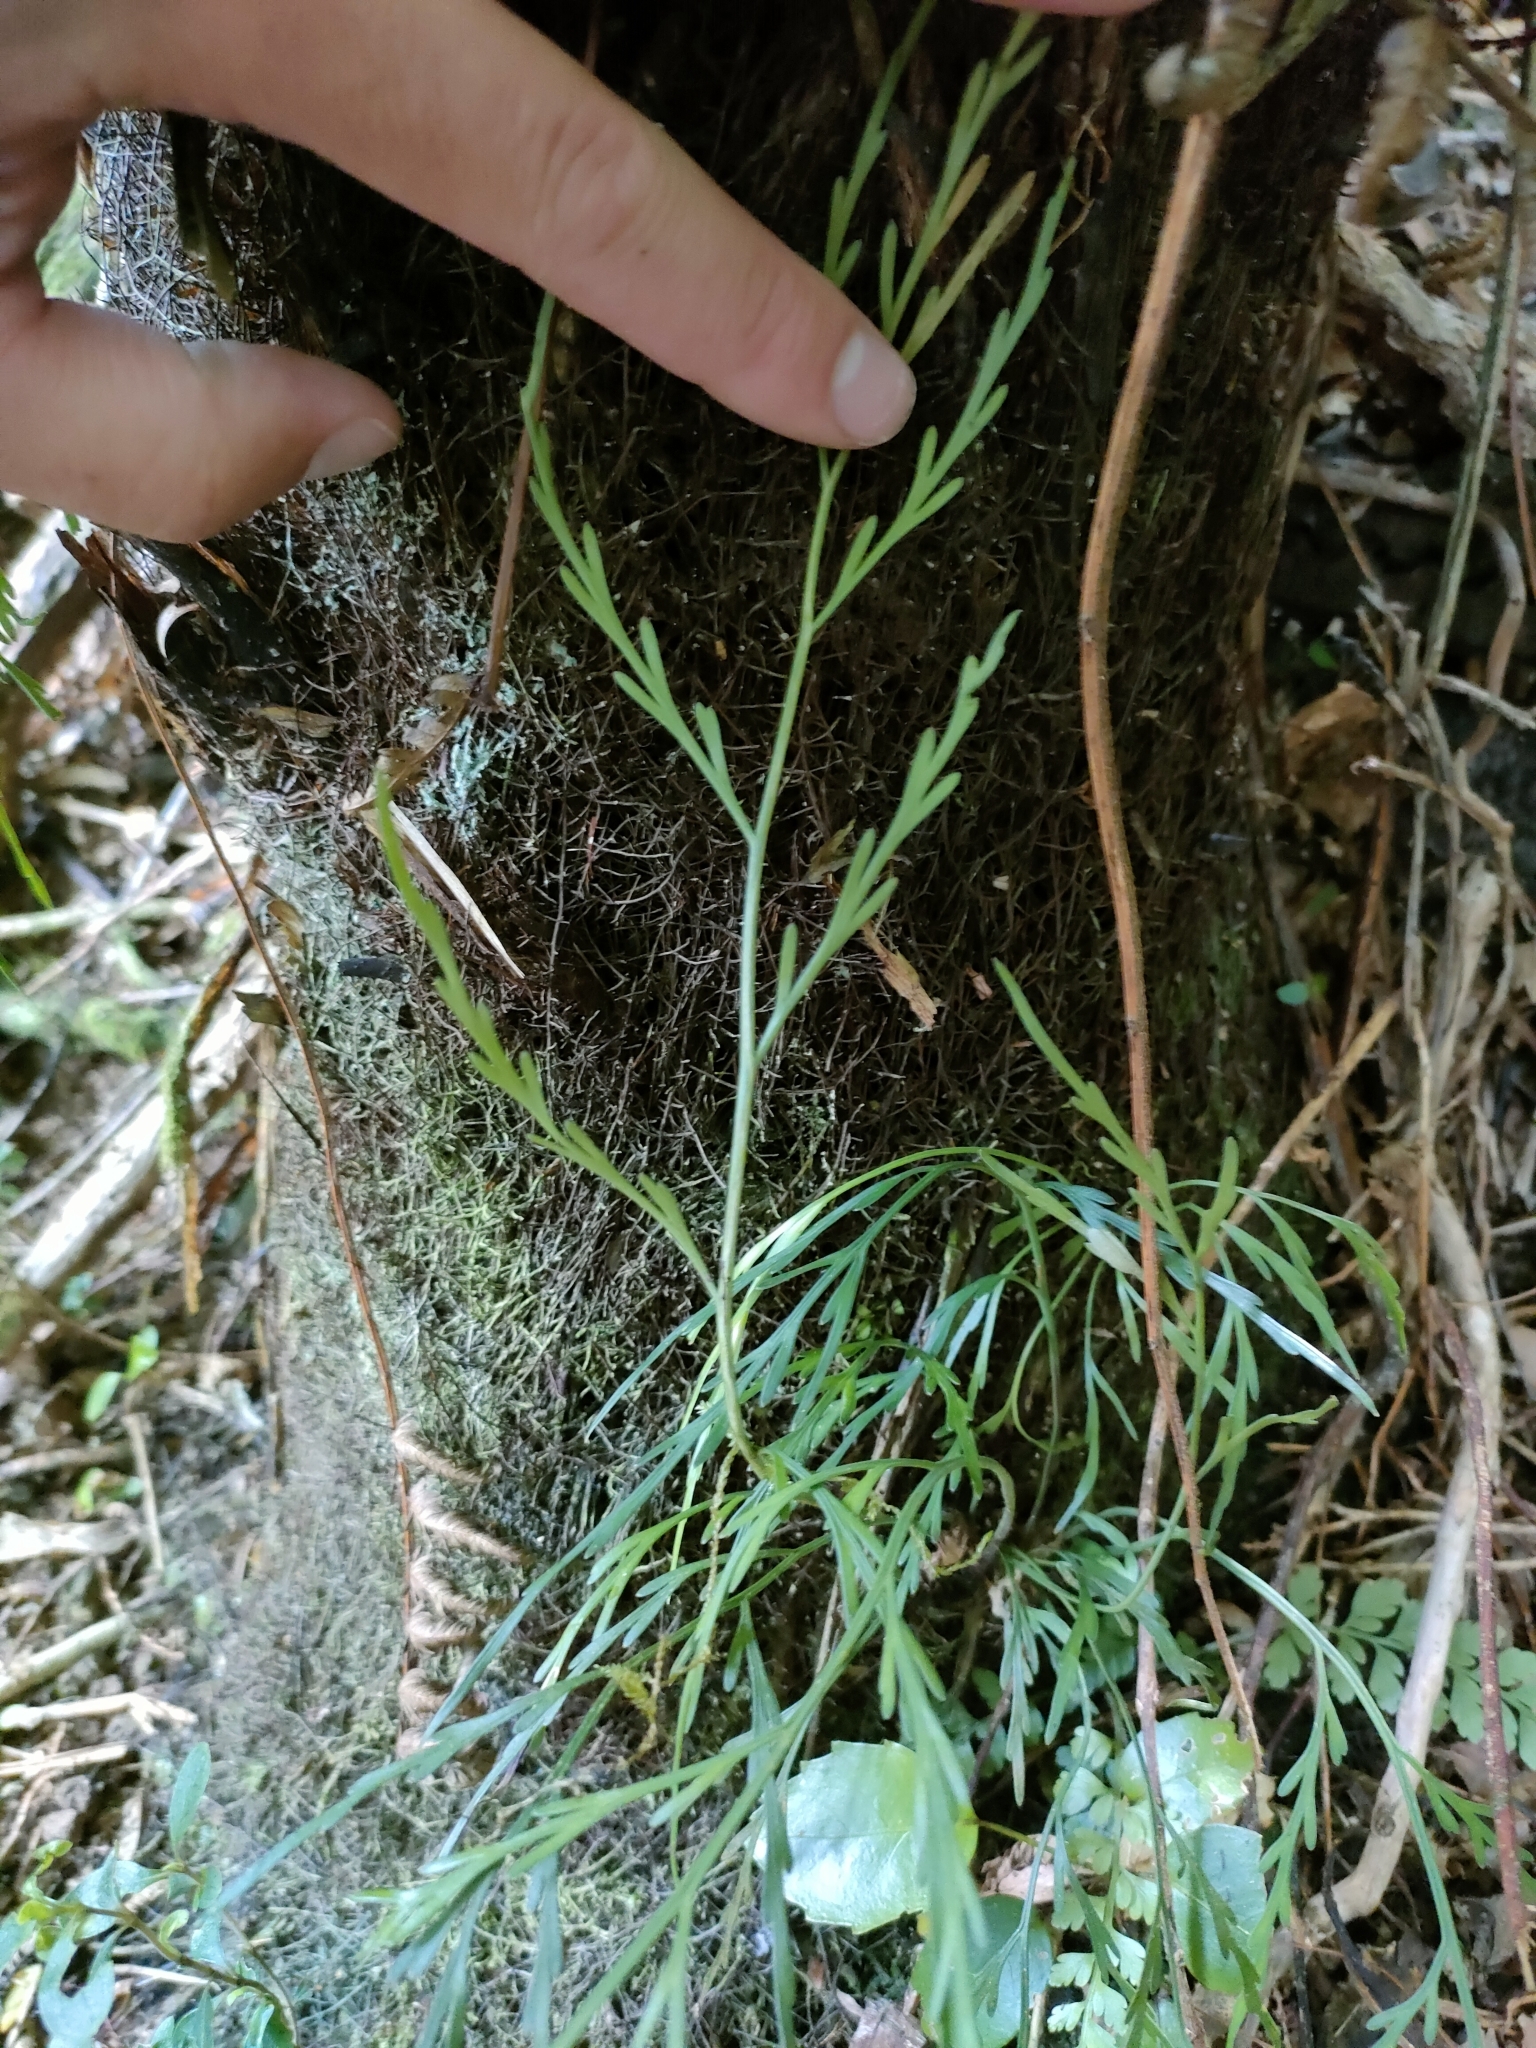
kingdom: Plantae
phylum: Tracheophyta
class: Polypodiopsida
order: Polypodiales
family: Aspleniaceae
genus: Asplenium
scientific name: Asplenium flaccidum
